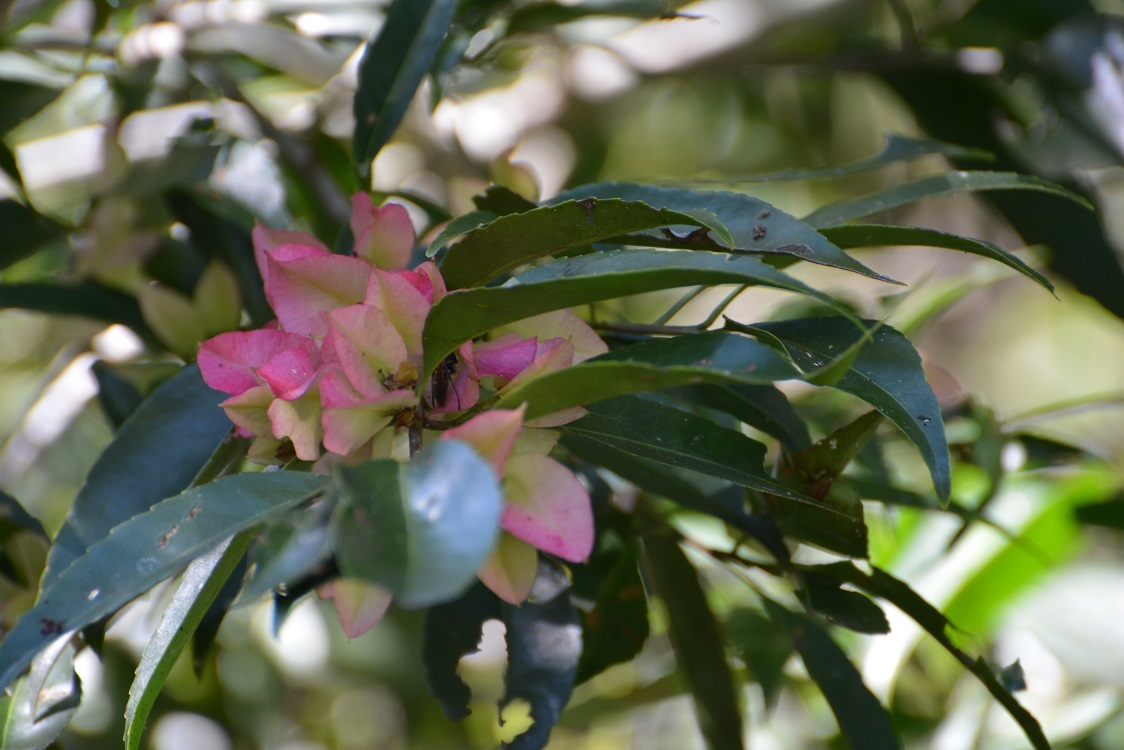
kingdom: Plantae
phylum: Tracheophyta
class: Magnoliopsida
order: Celastrales
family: Celastraceae
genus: Wimmeria
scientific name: Wimmeria bartlettii
